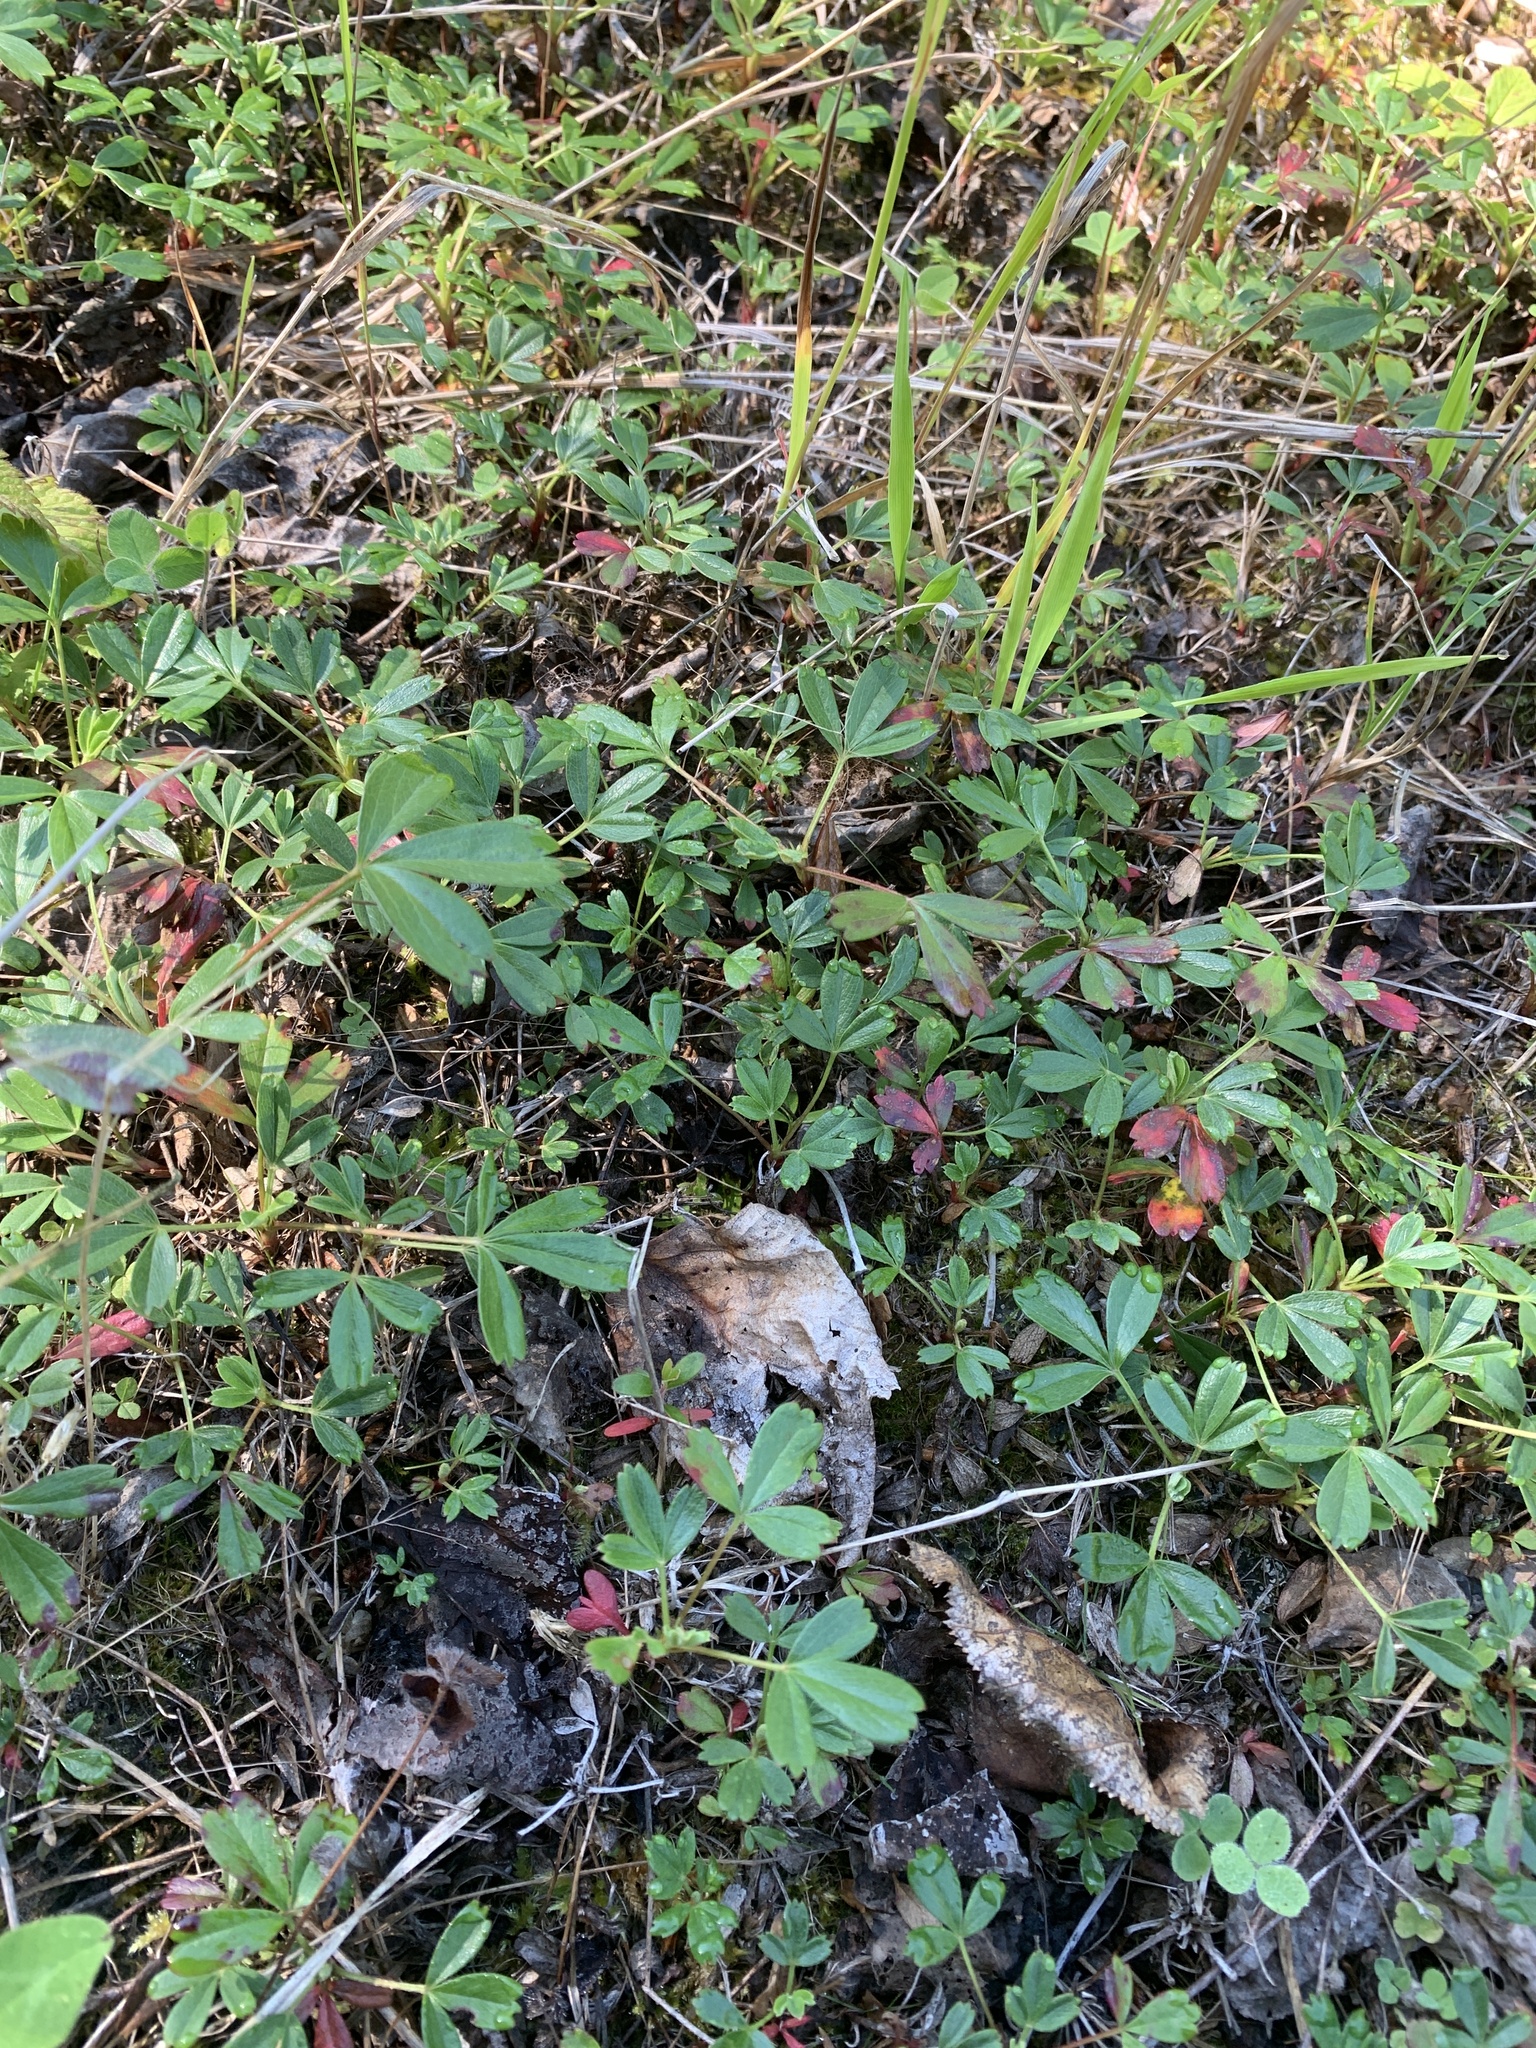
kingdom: Plantae
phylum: Tracheophyta
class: Magnoliopsida
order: Rosales
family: Rosaceae
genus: Sibbaldia
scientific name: Sibbaldia tridentata
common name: Three-toothed cinquefoil
